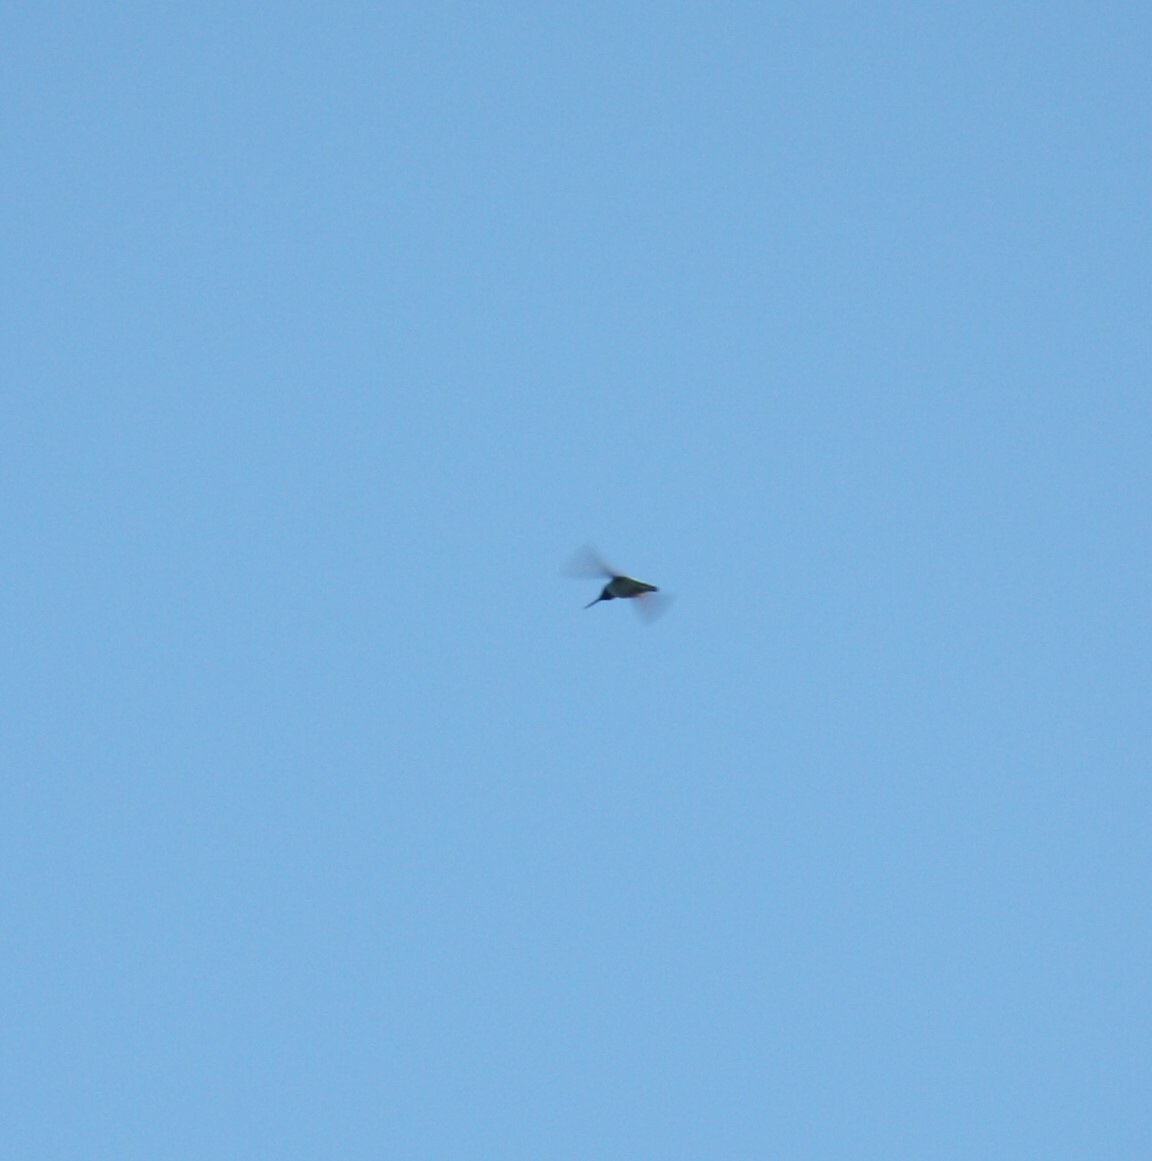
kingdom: Animalia
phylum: Chordata
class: Aves
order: Apodiformes
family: Trochilidae
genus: Calypte
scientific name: Calypte anna
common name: Anna's hummingbird
